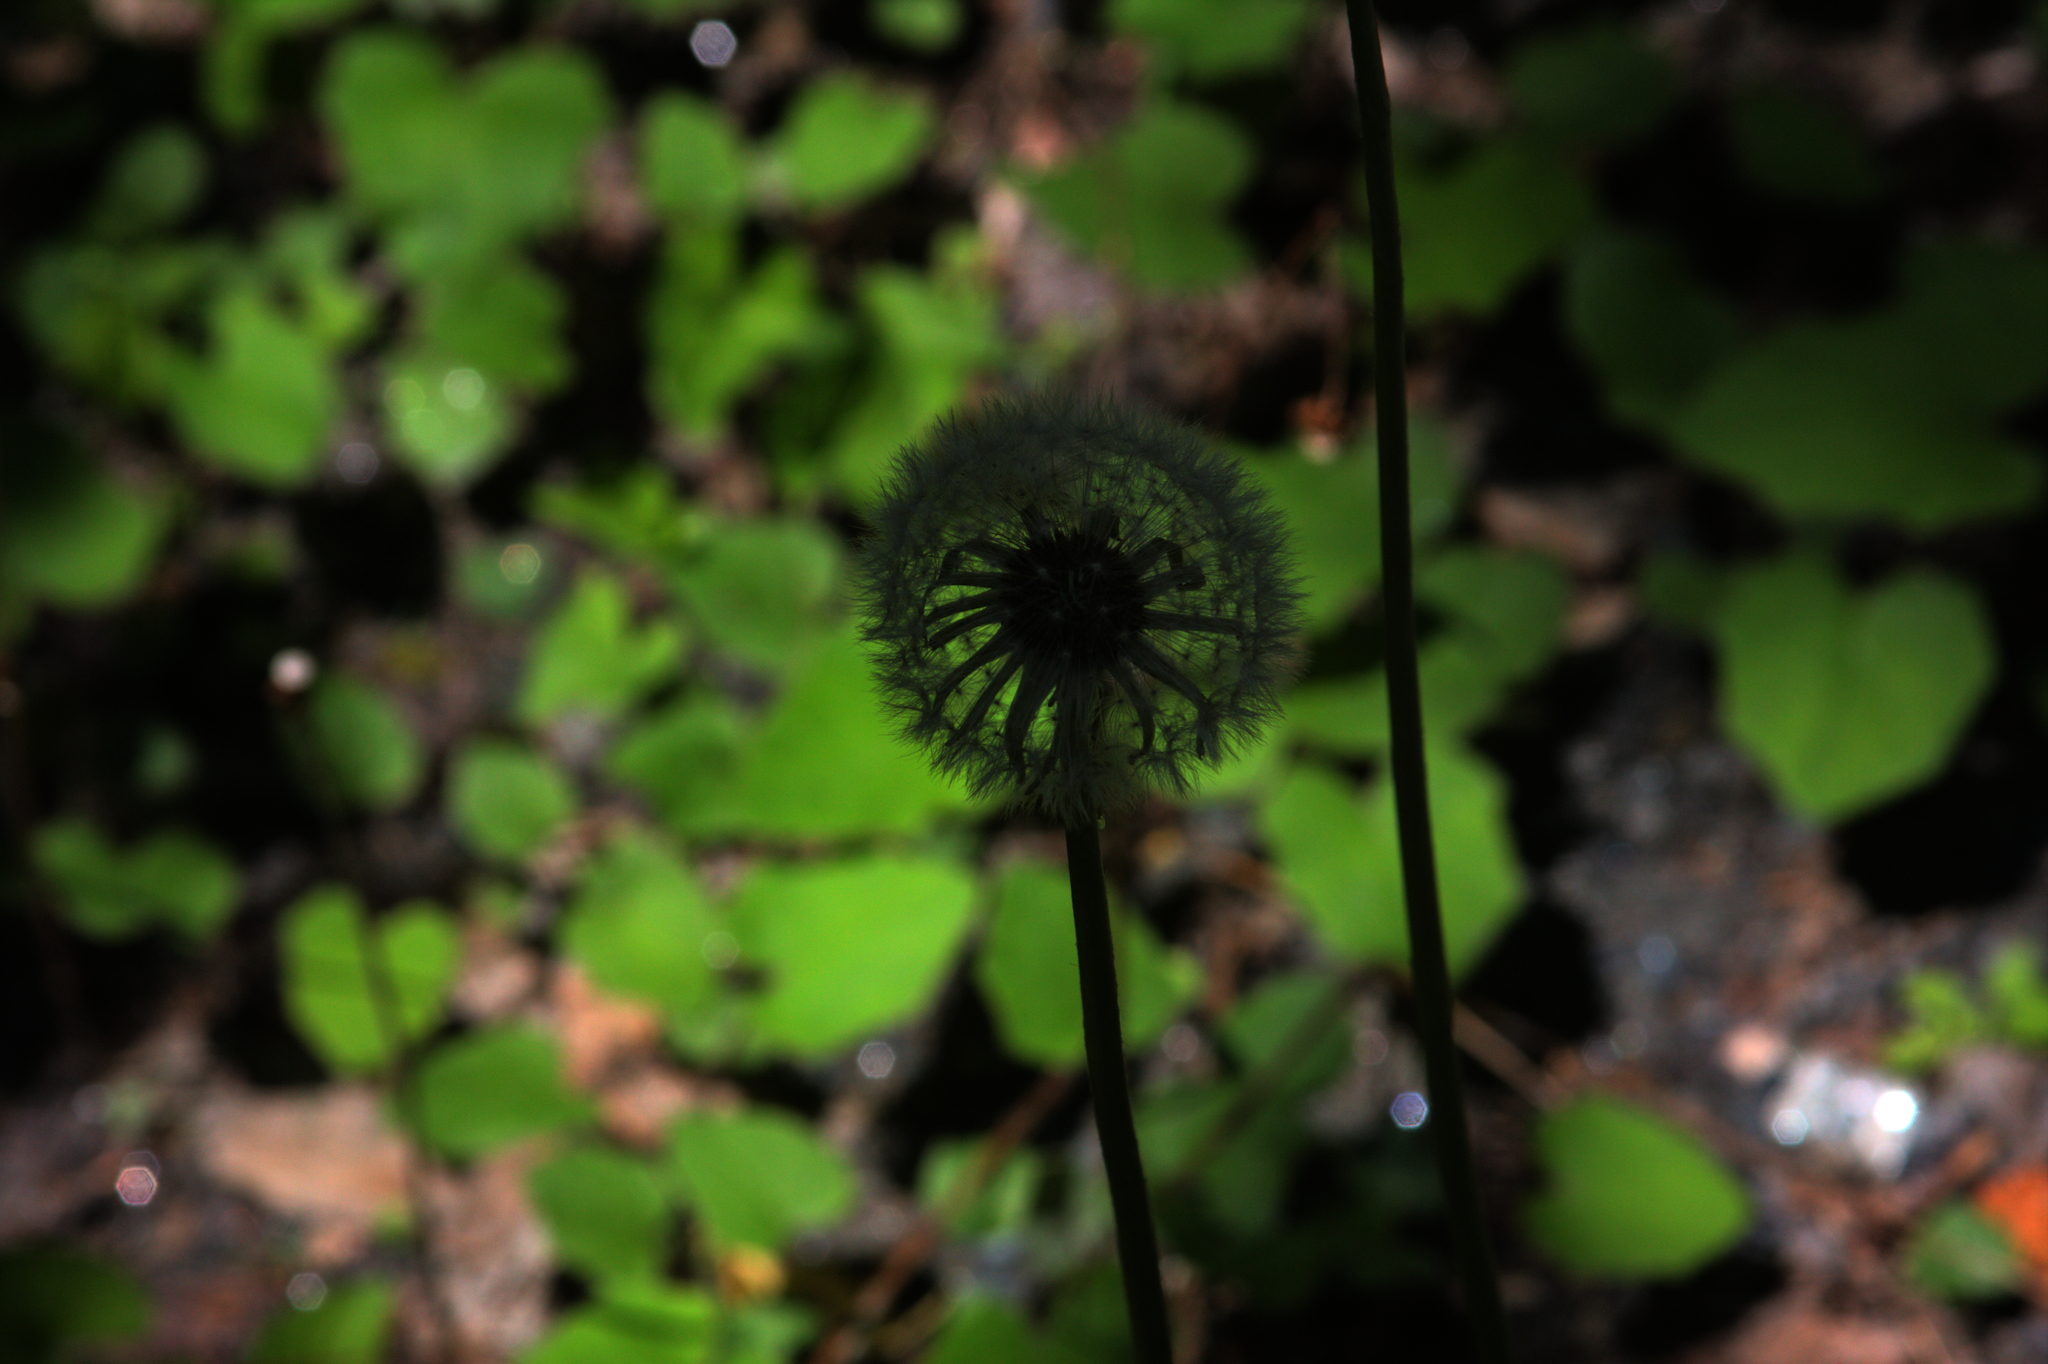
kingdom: Plantae
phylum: Tracheophyta
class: Magnoliopsida
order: Asterales
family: Asteraceae
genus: Taraxacum
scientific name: Taraxacum officinale
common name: Common dandelion
